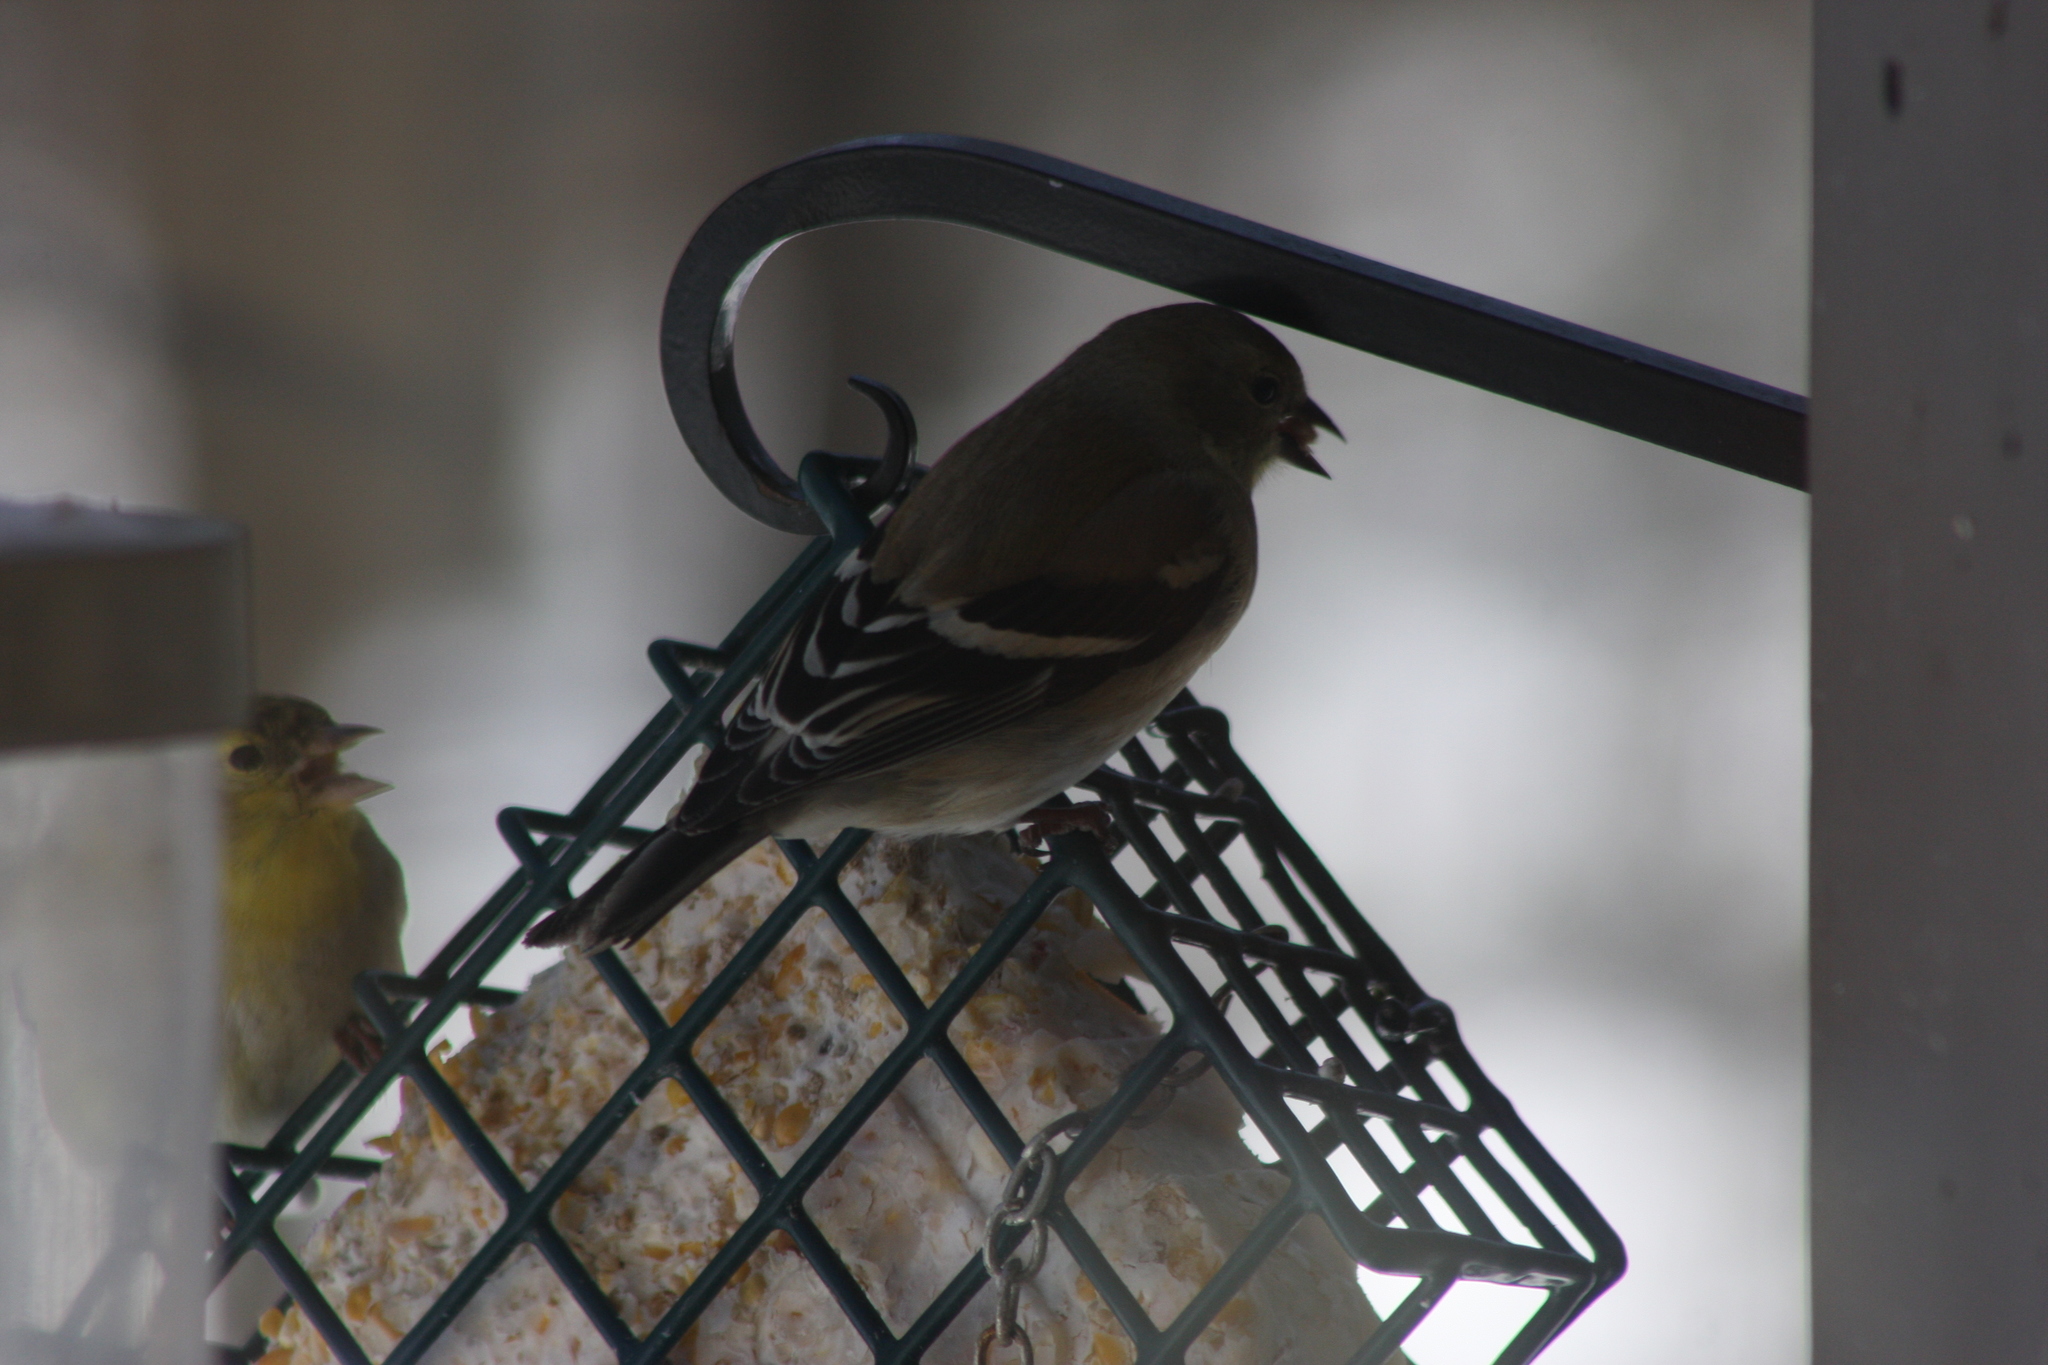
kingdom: Animalia
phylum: Chordata
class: Aves
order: Passeriformes
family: Fringillidae
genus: Spinus
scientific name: Spinus tristis
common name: American goldfinch
